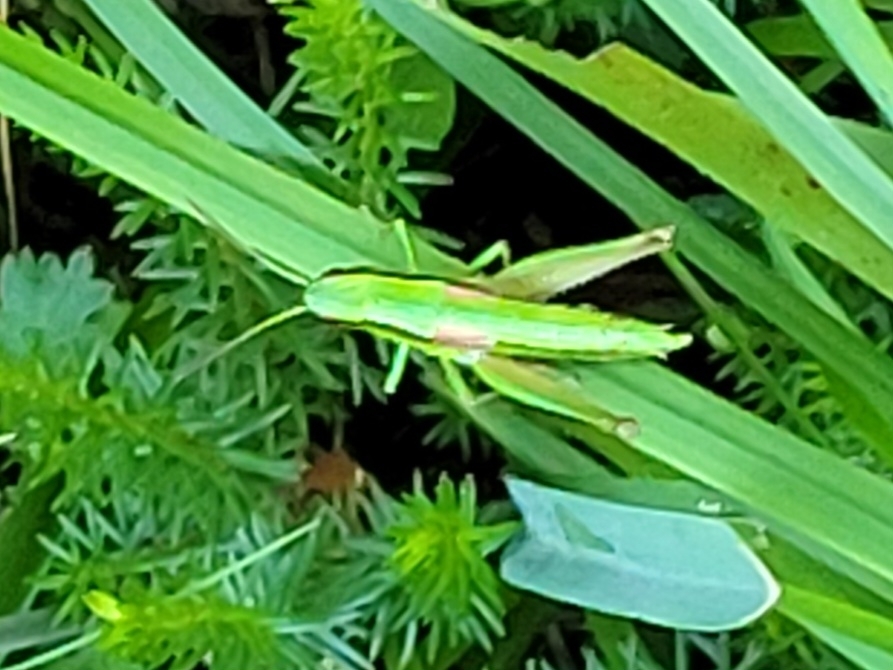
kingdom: Animalia
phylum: Arthropoda
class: Insecta
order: Orthoptera
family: Acrididae
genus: Euthystira
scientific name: Euthystira brachyptera
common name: Small gold grasshopper
